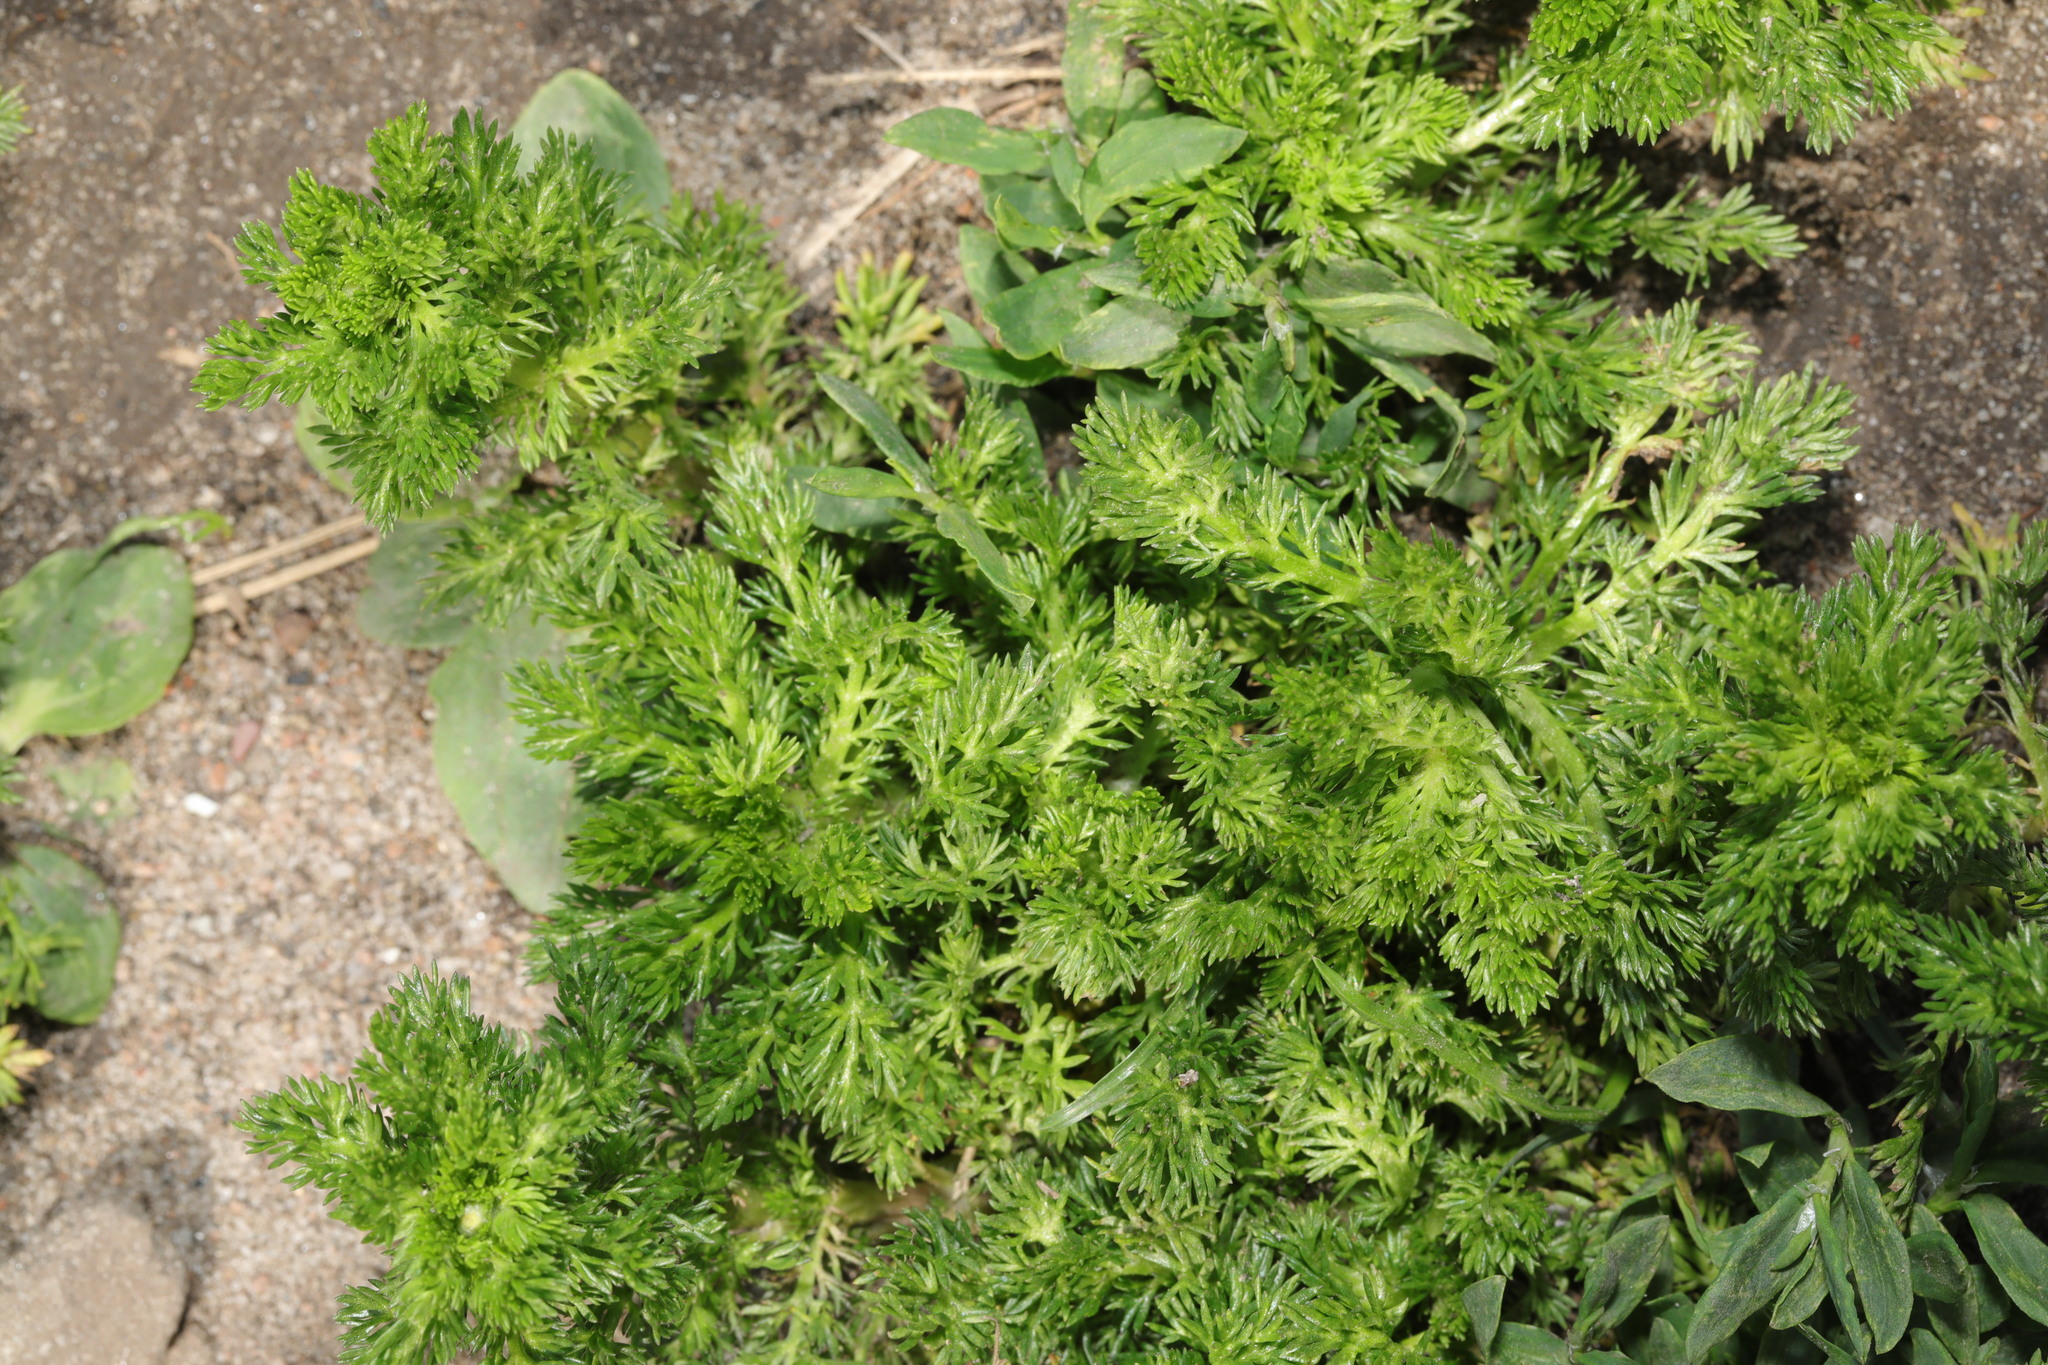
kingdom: Plantae
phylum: Tracheophyta
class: Magnoliopsida
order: Asterales
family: Asteraceae
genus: Matricaria
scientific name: Matricaria discoidea
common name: Disc mayweed
